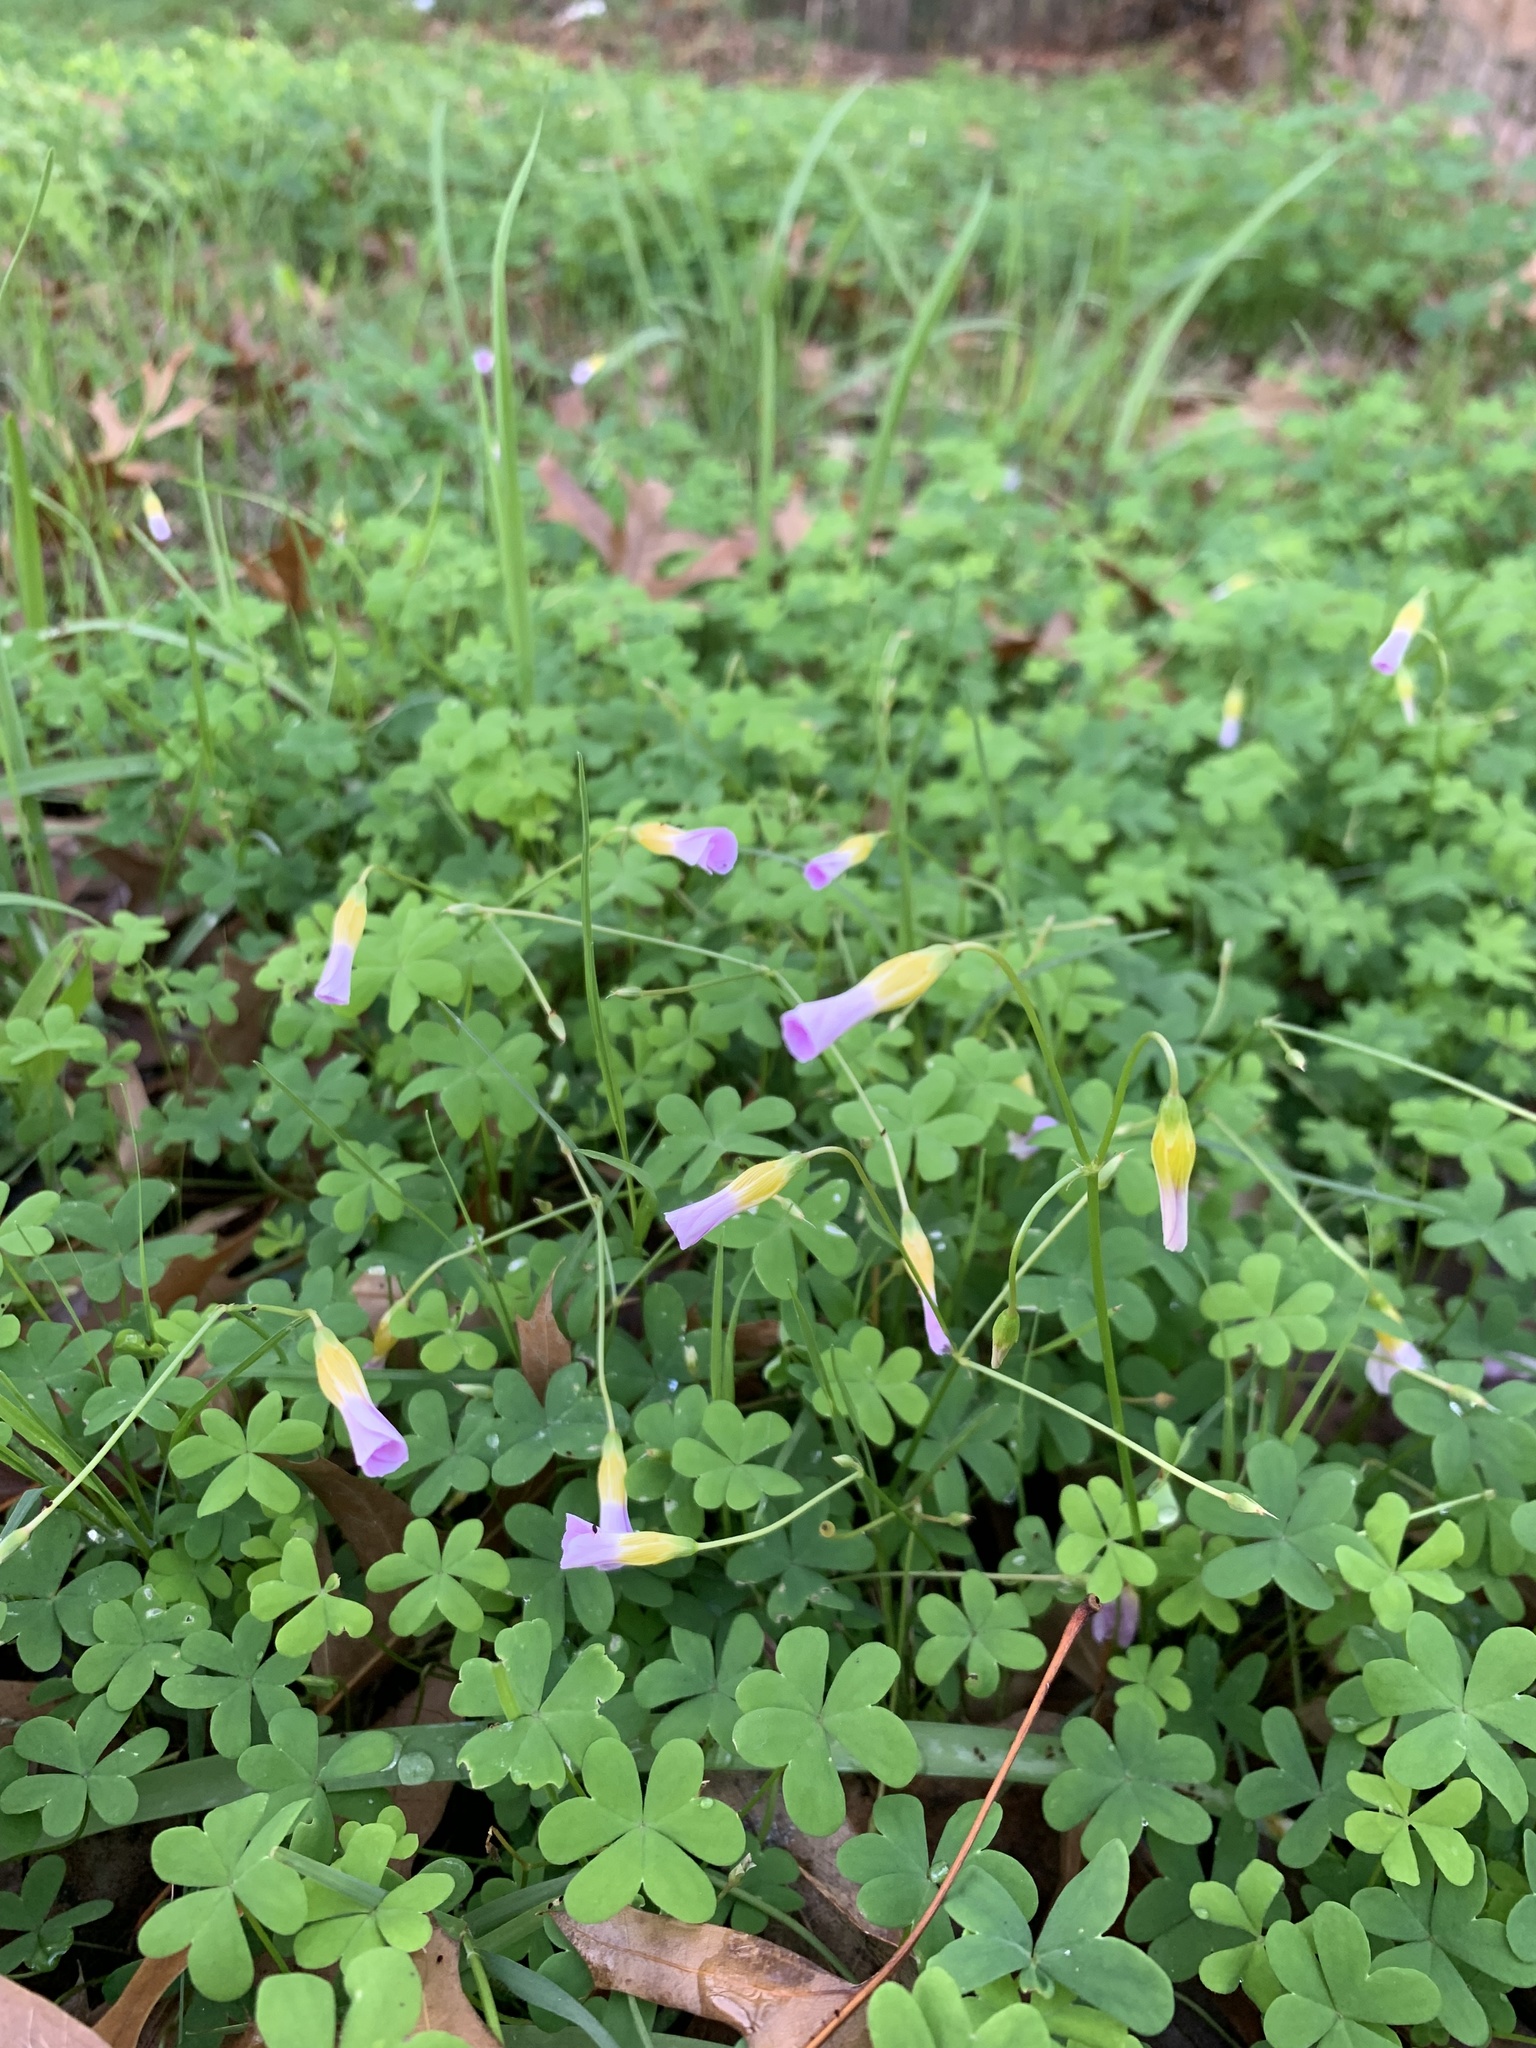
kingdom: Plantae
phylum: Tracheophyta
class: Magnoliopsida
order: Oxalidales
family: Oxalidaceae
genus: Oxalis
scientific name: Oxalis caprina
